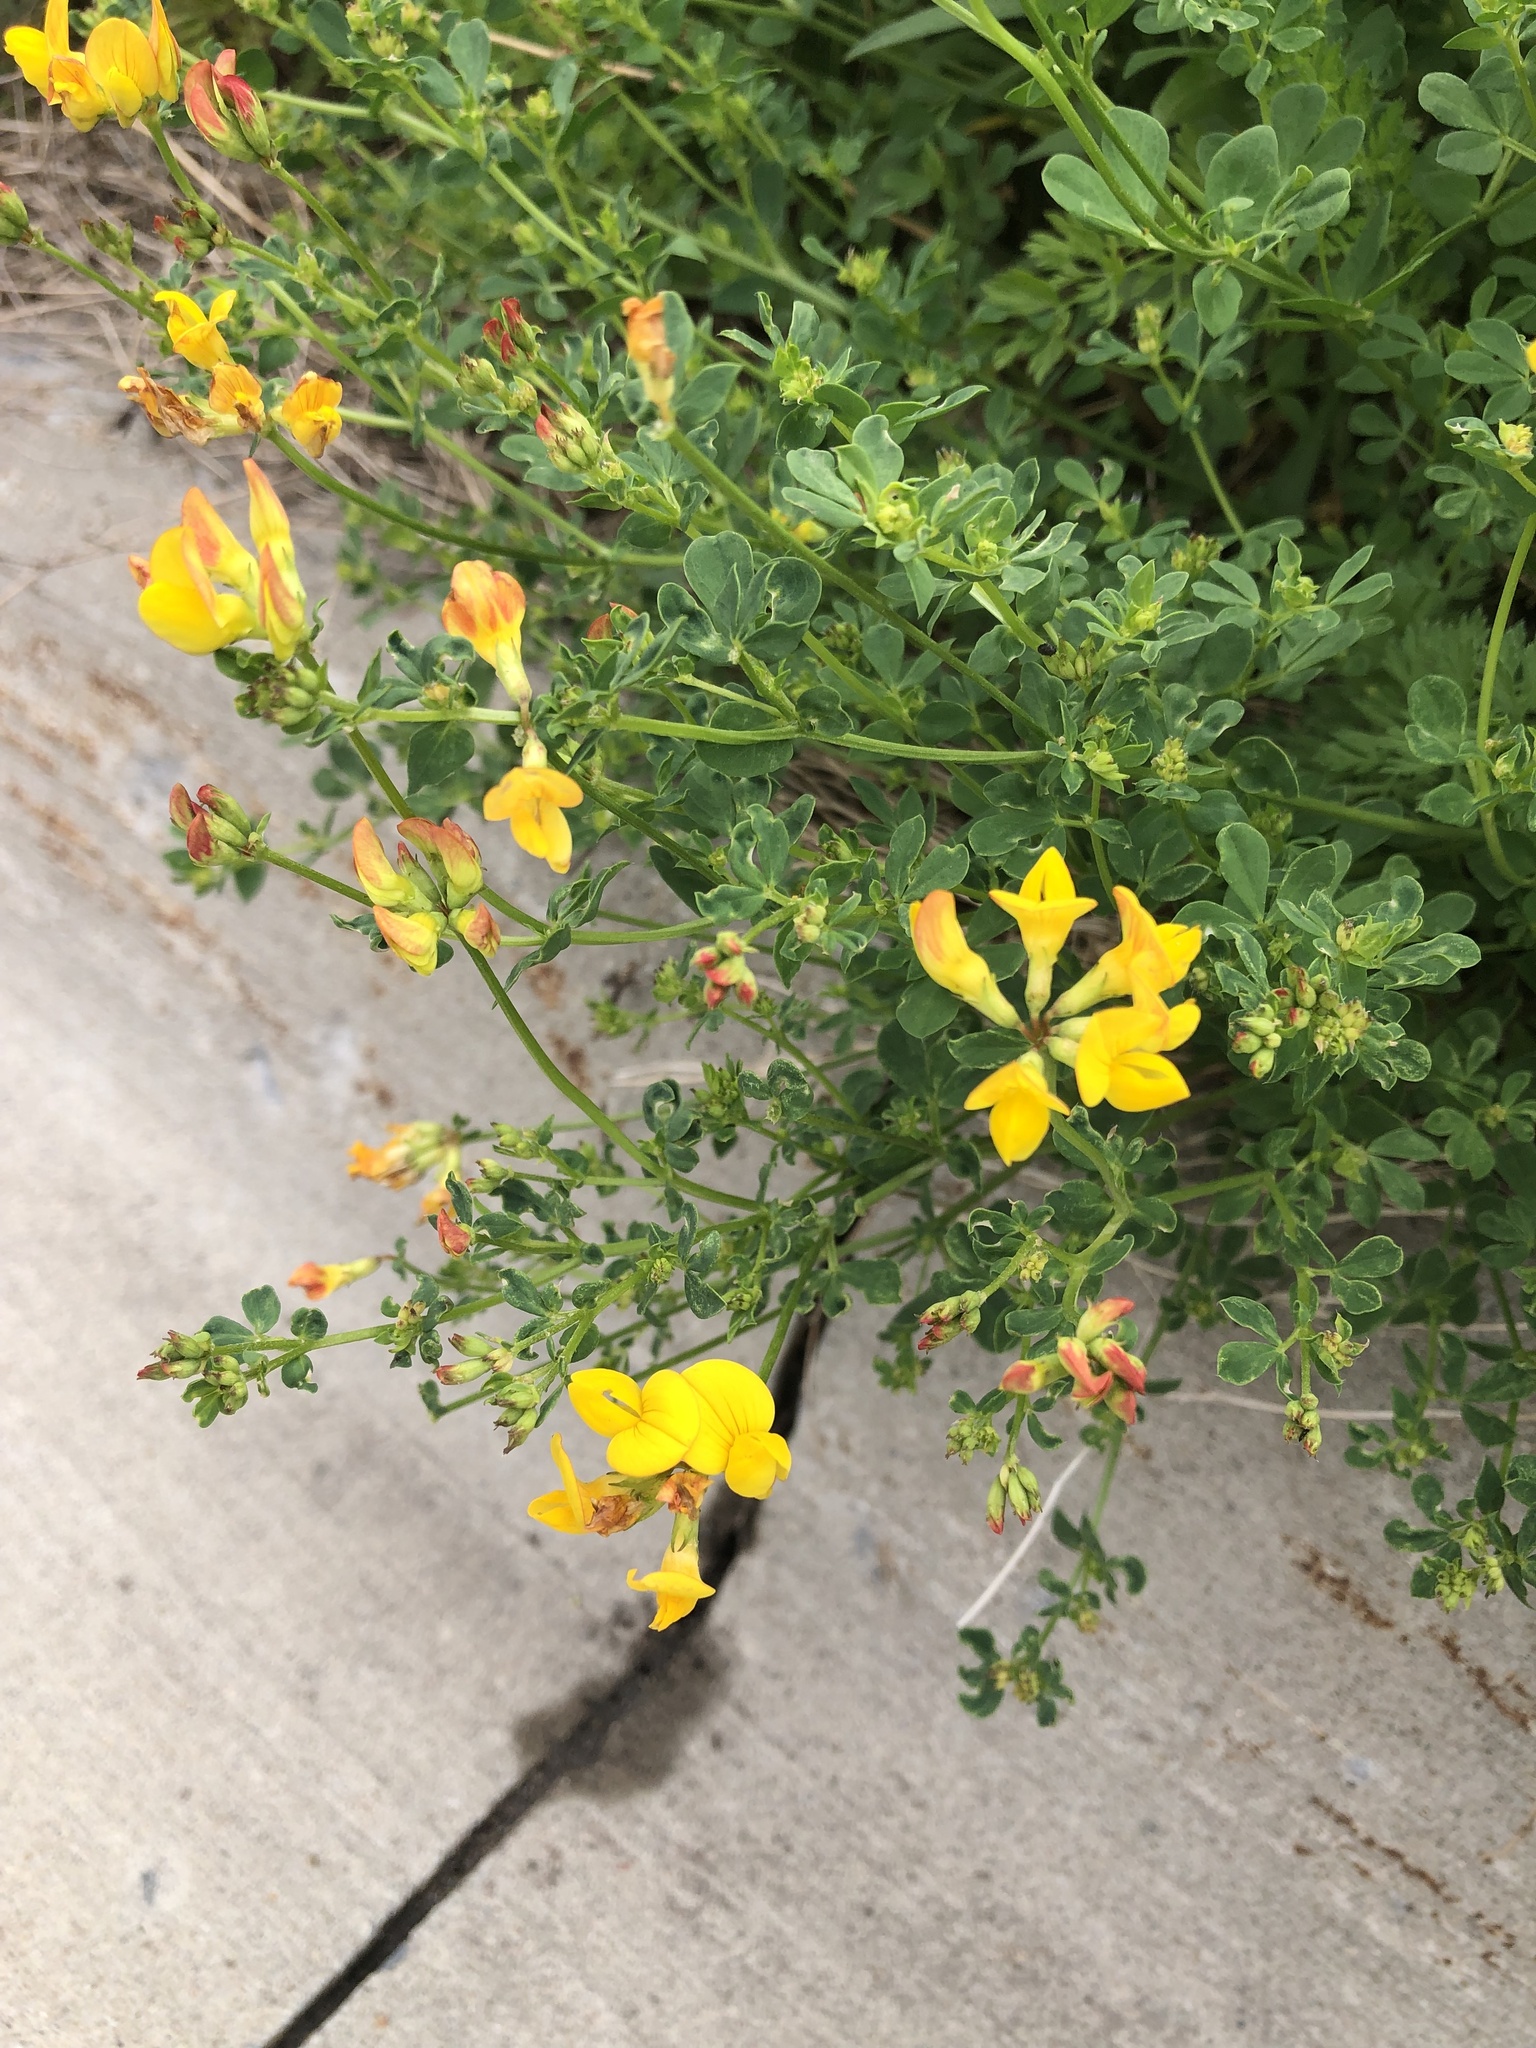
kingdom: Plantae
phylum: Tracheophyta
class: Magnoliopsida
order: Fabales
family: Fabaceae
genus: Lotus
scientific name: Lotus corniculatus
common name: Common bird's-foot-trefoil
